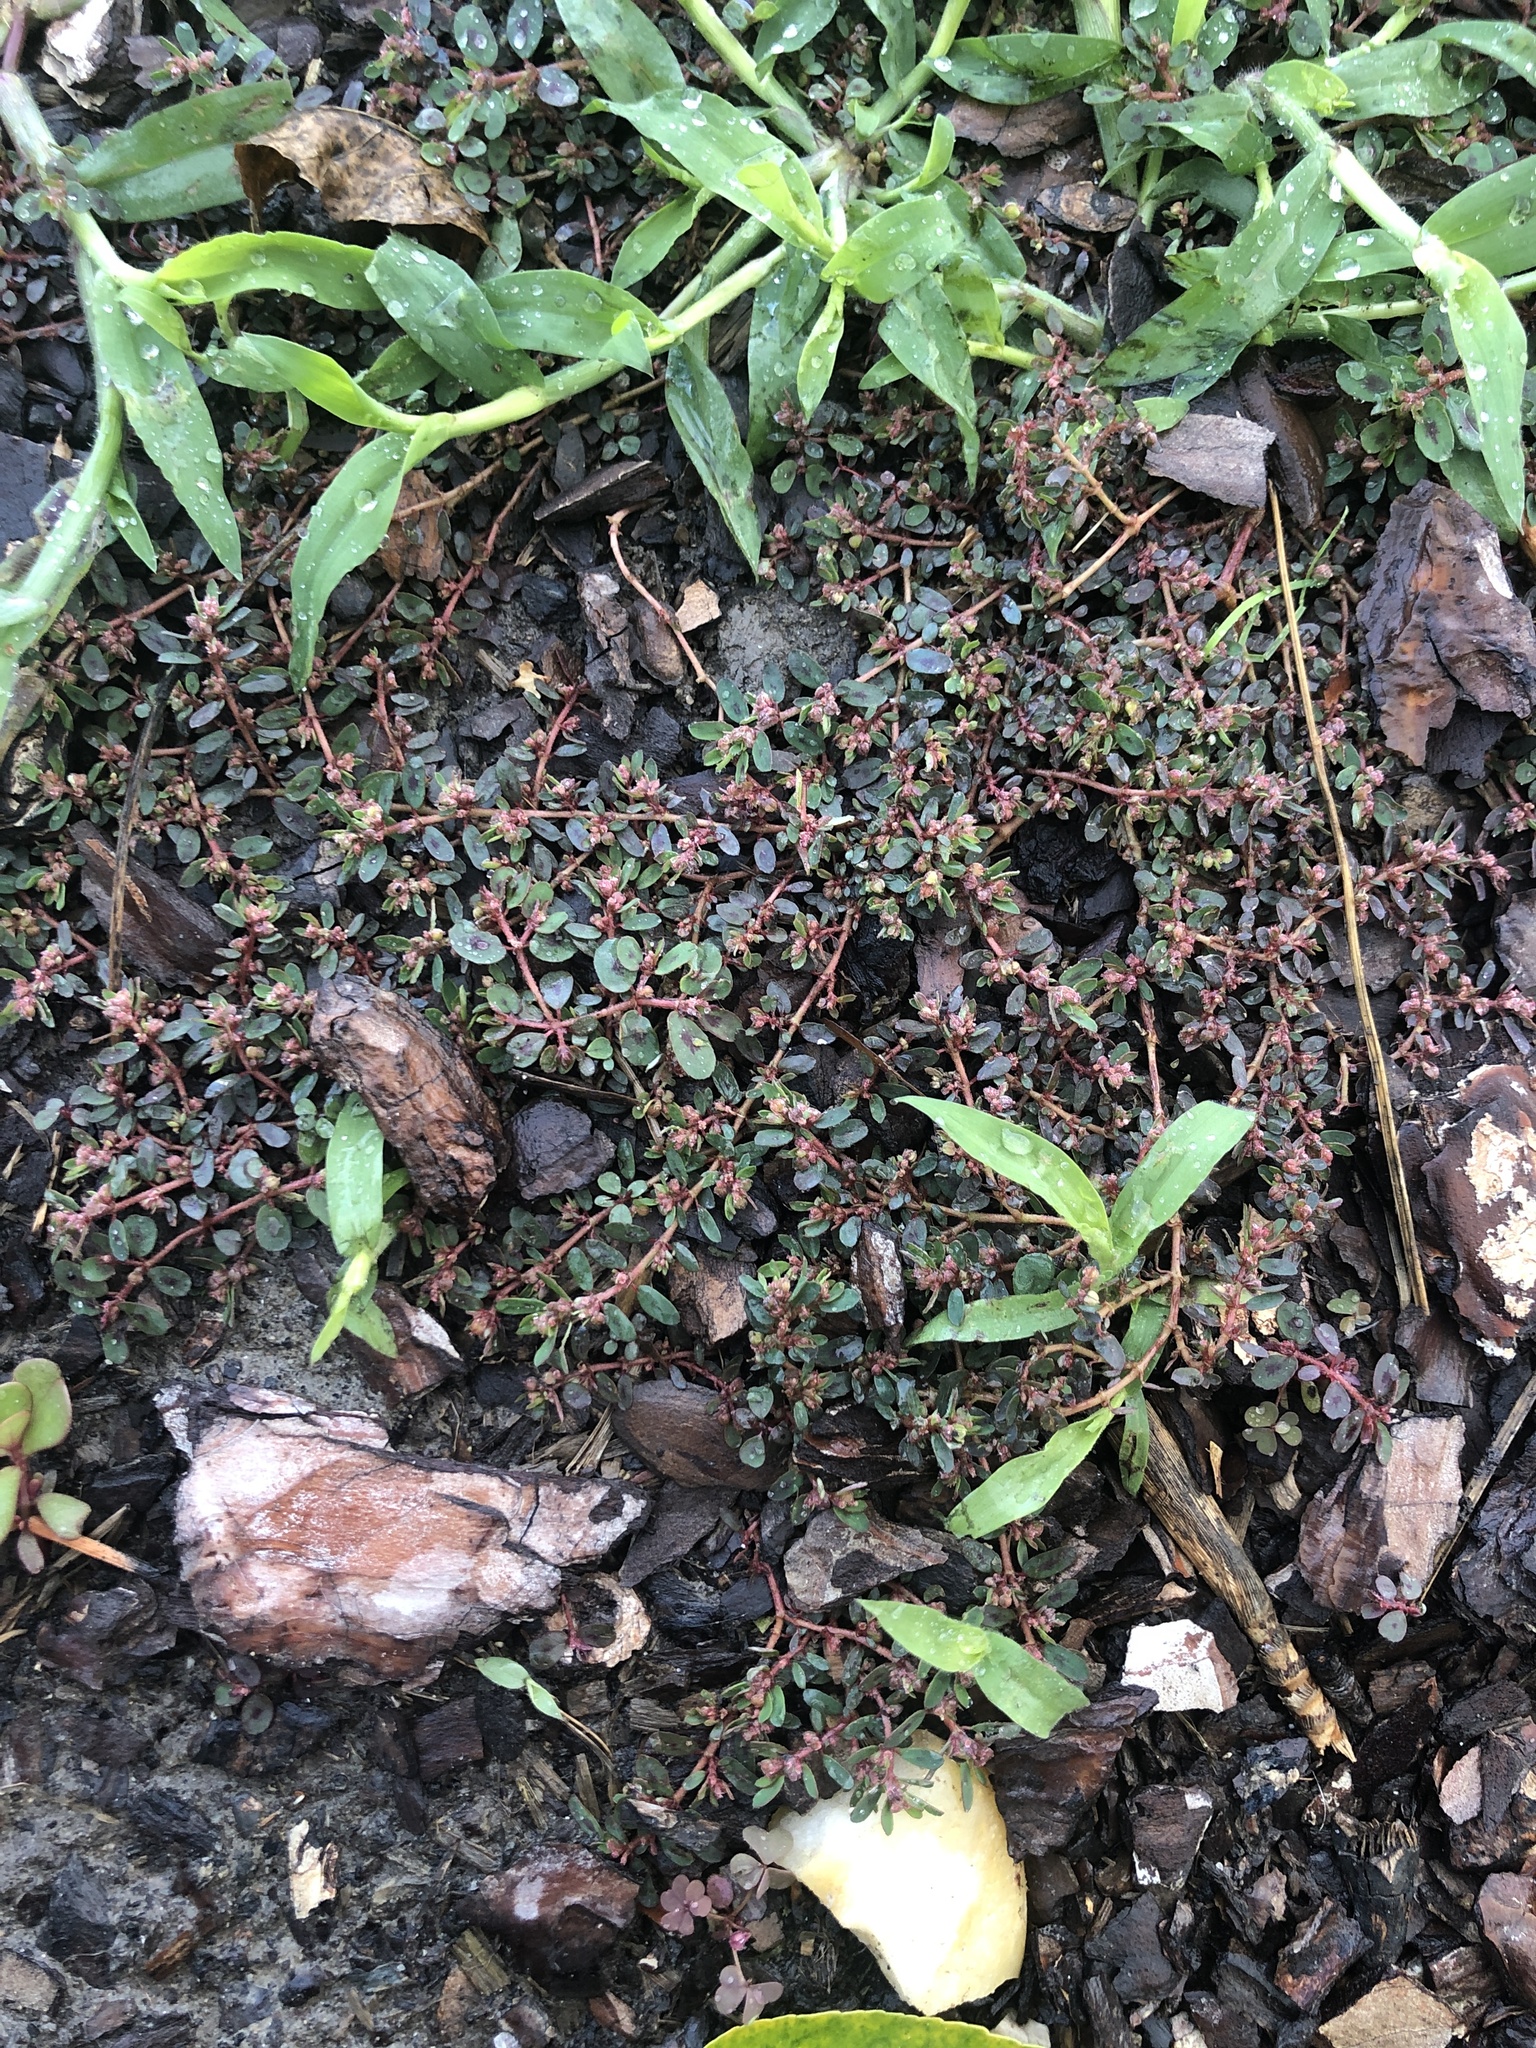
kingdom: Plantae
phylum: Tracheophyta
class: Magnoliopsida
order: Malpighiales
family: Euphorbiaceae
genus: Euphorbia
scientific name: Euphorbia maculata
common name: Spotted spurge
